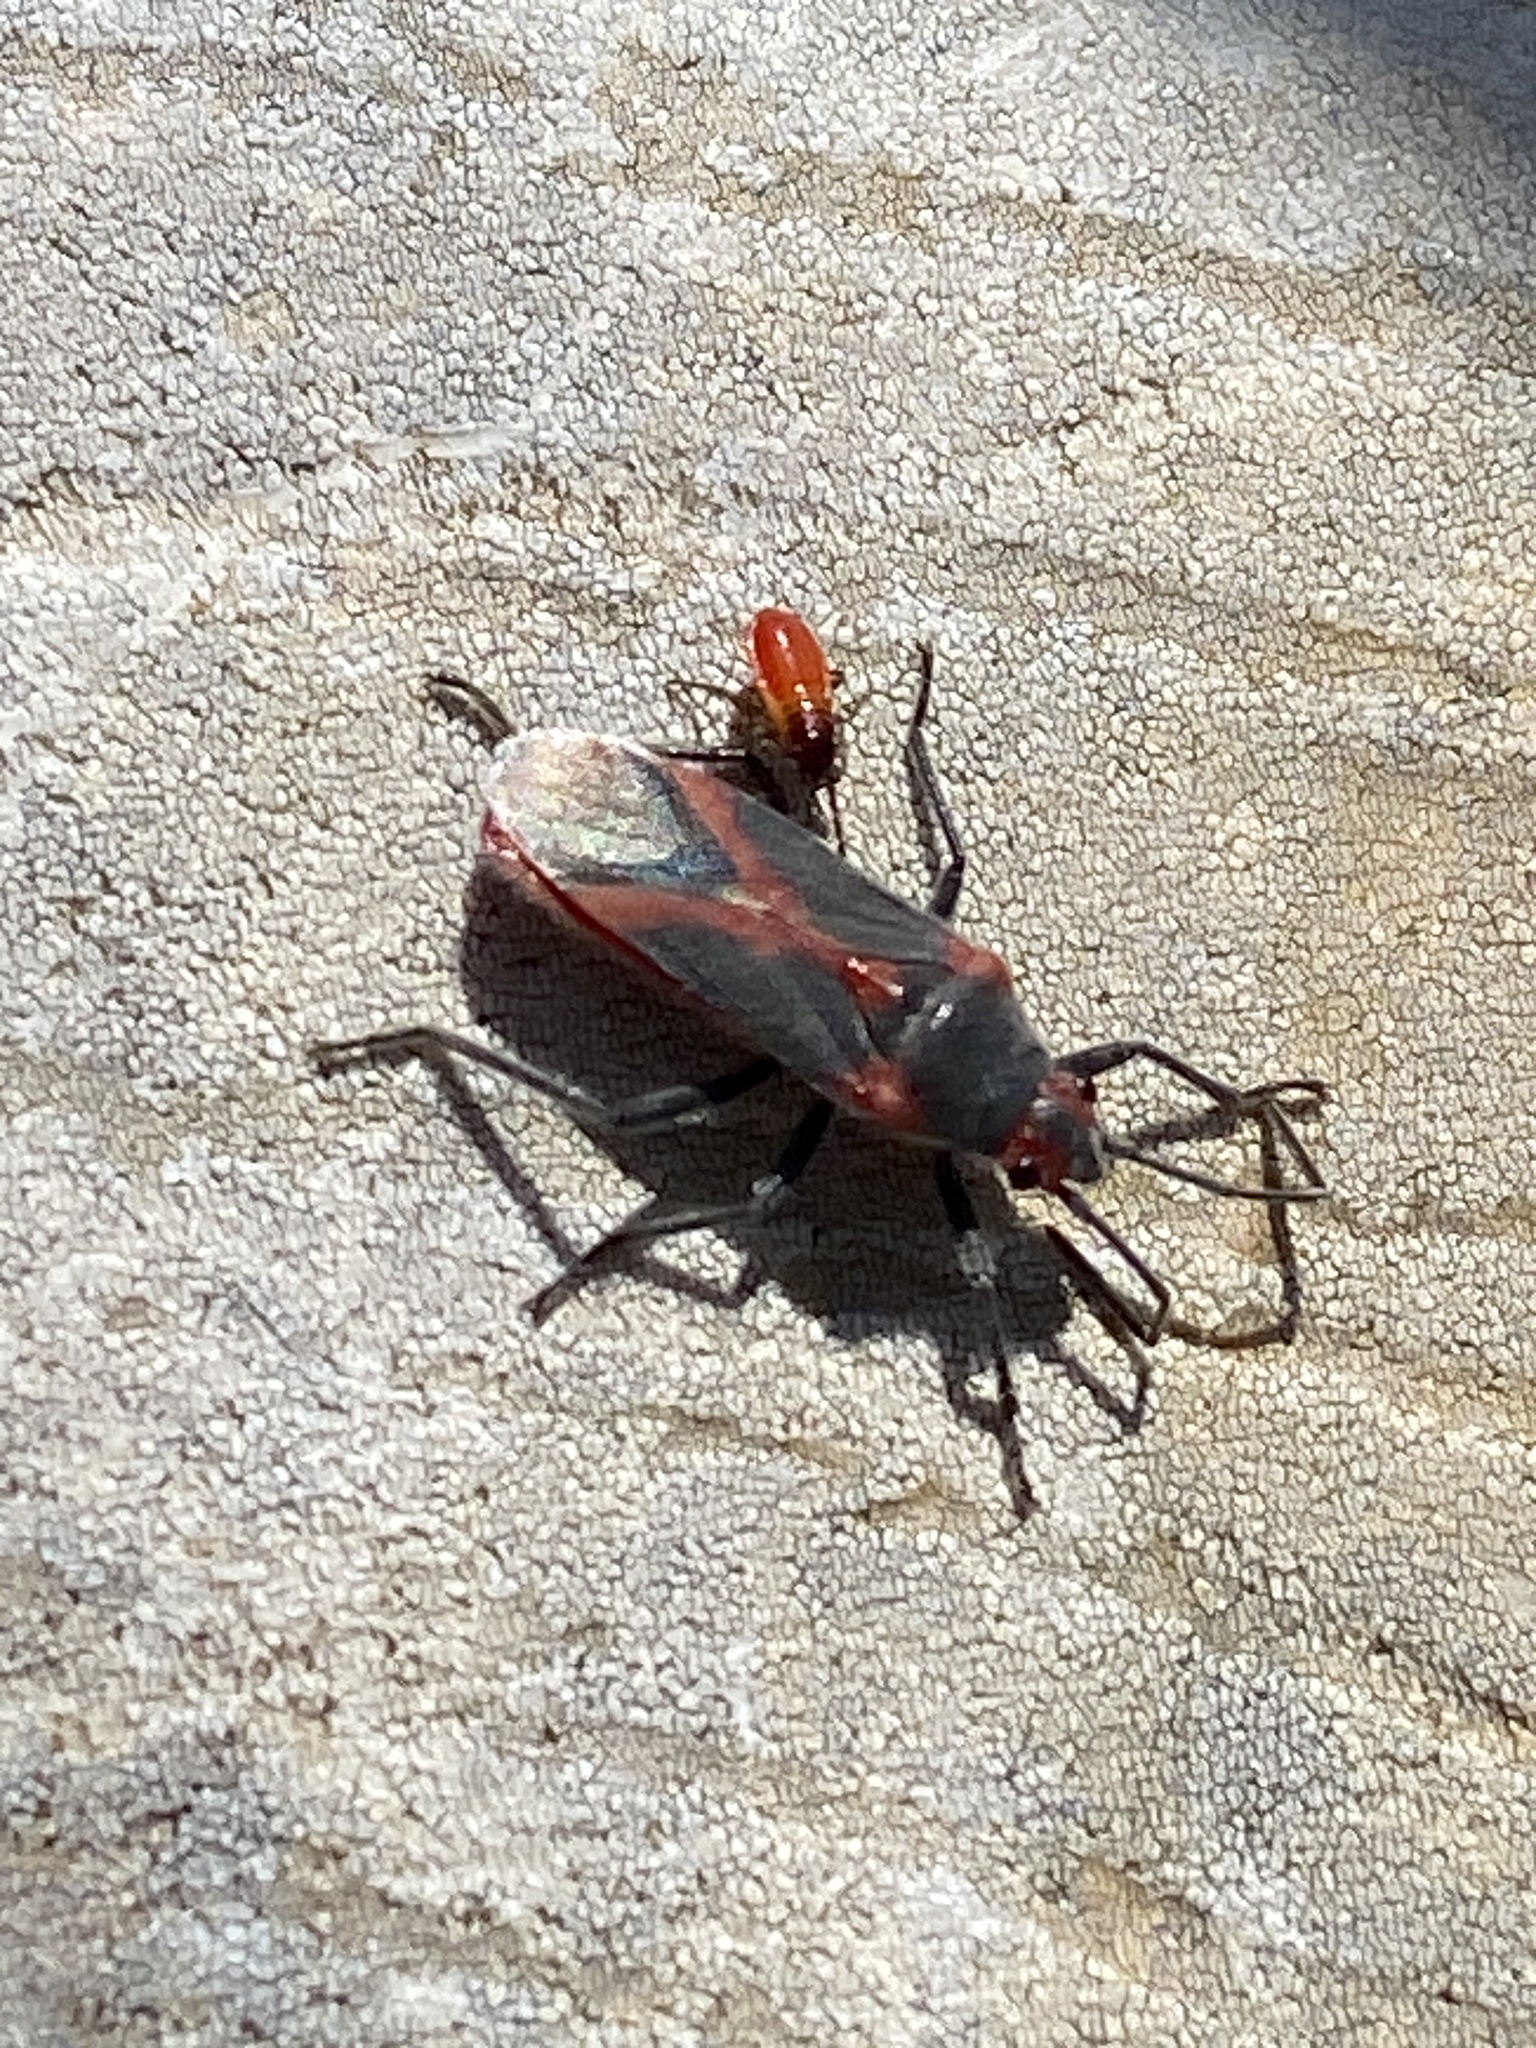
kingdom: Animalia
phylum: Arthropoda
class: Insecta
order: Hemiptera
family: Lygaeidae
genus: Caenocoris
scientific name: Caenocoris nerii
